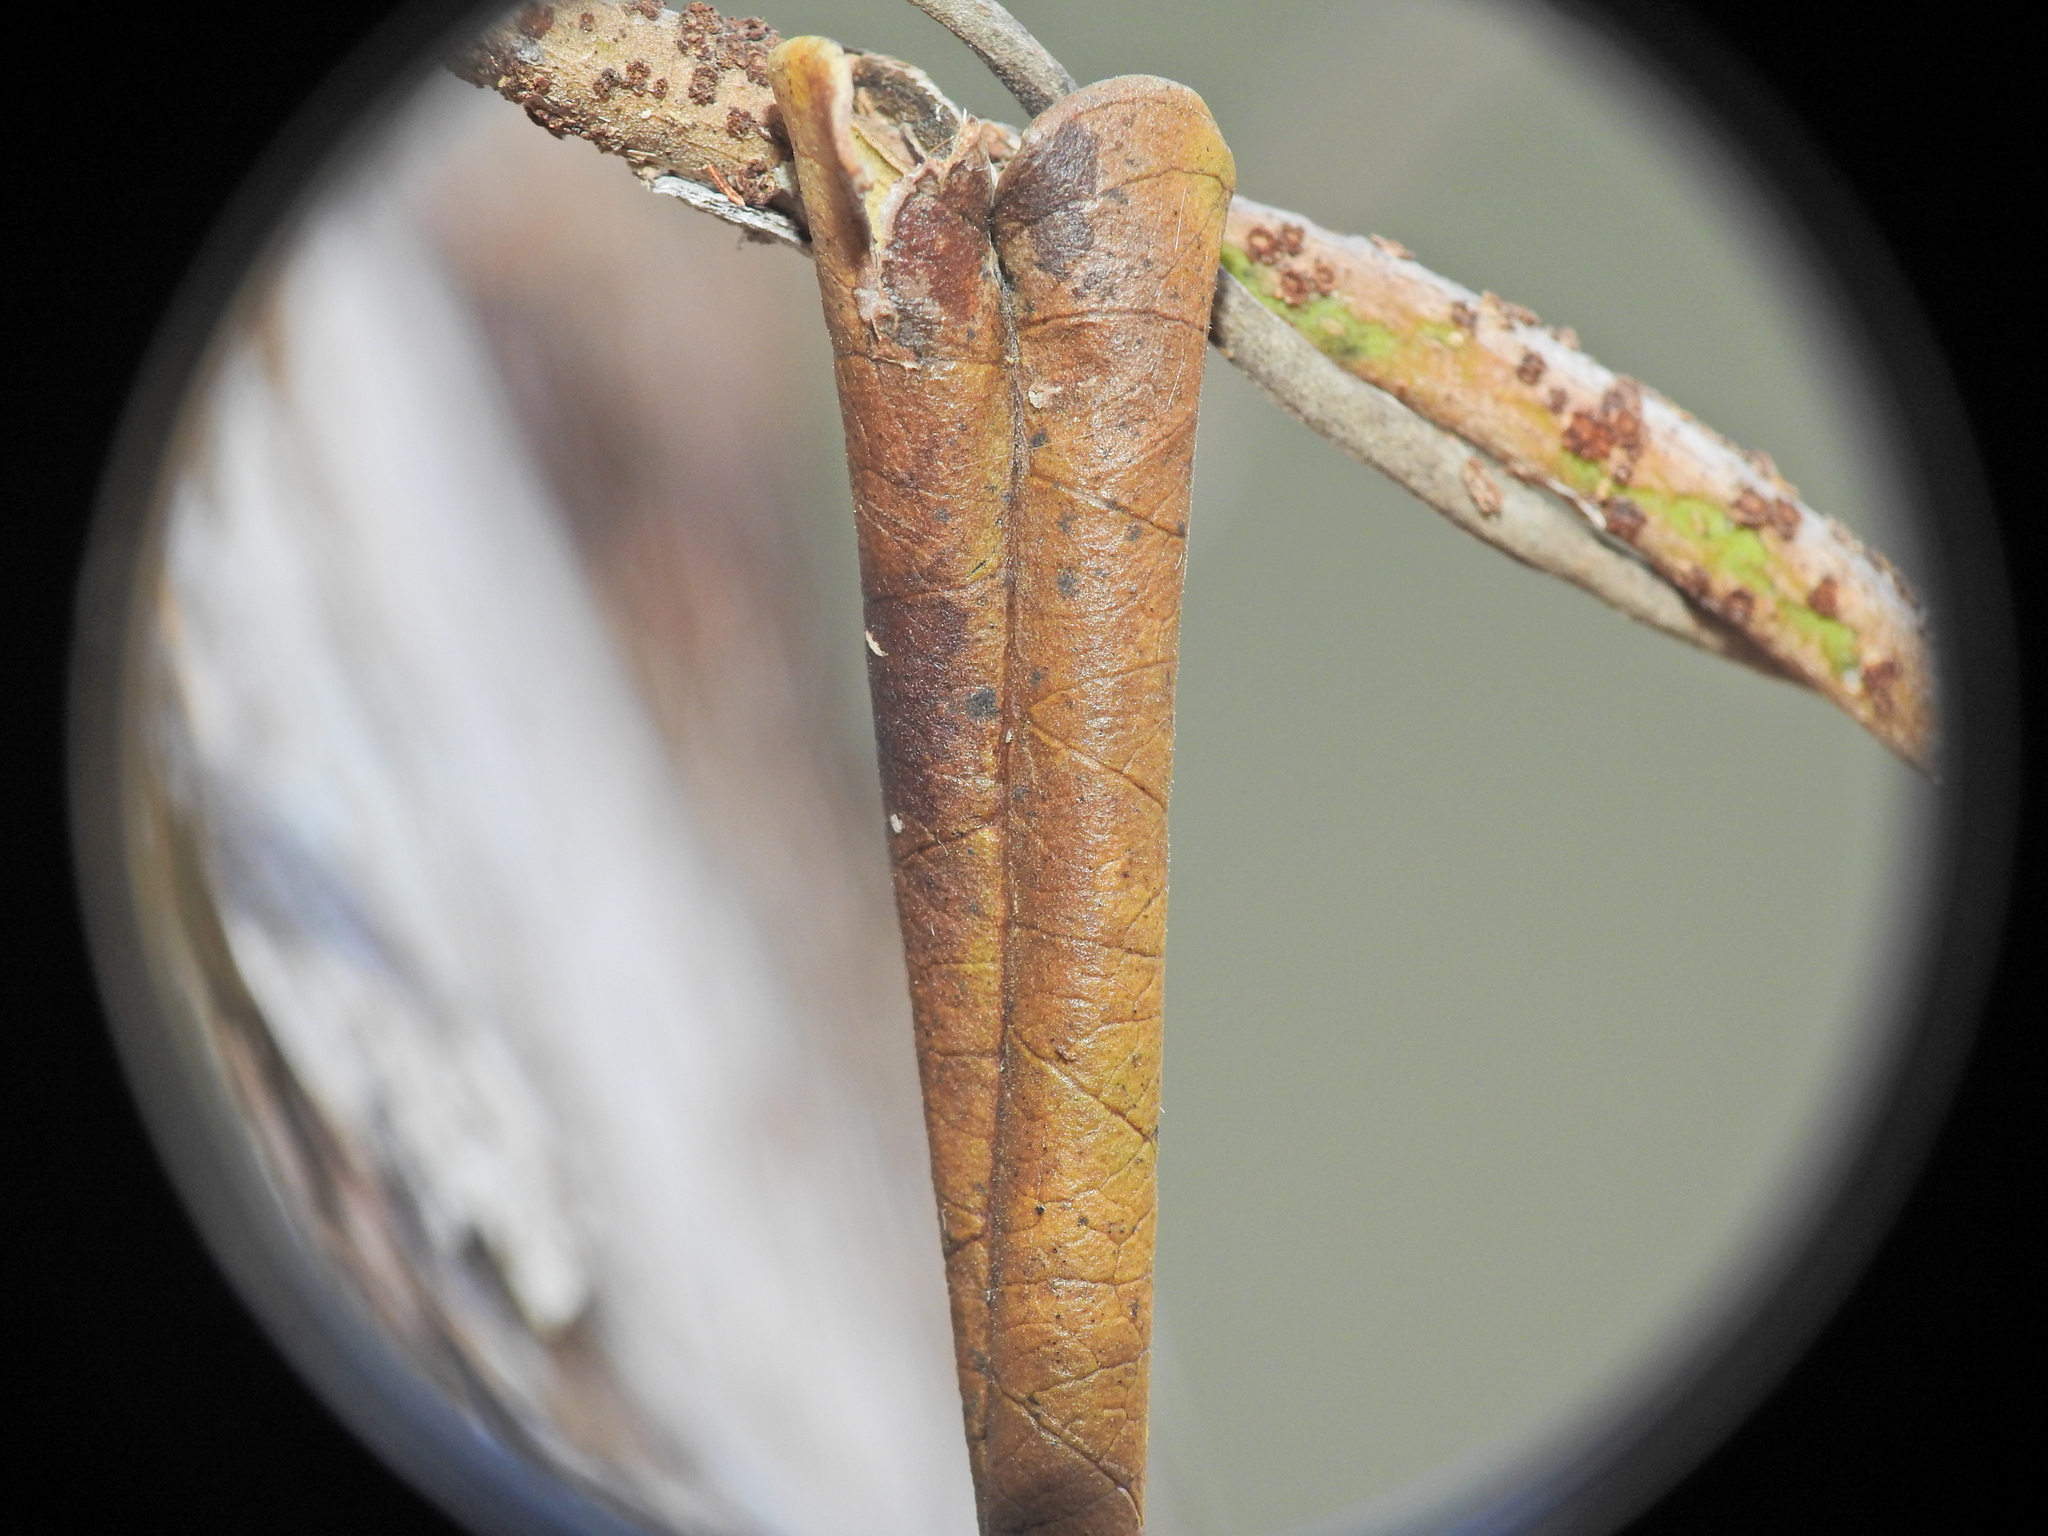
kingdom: Plantae
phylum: Tracheophyta
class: Magnoliopsida
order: Gentianales
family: Apocynaceae
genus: Parsonsia
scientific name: Parsonsia brisbanensis
